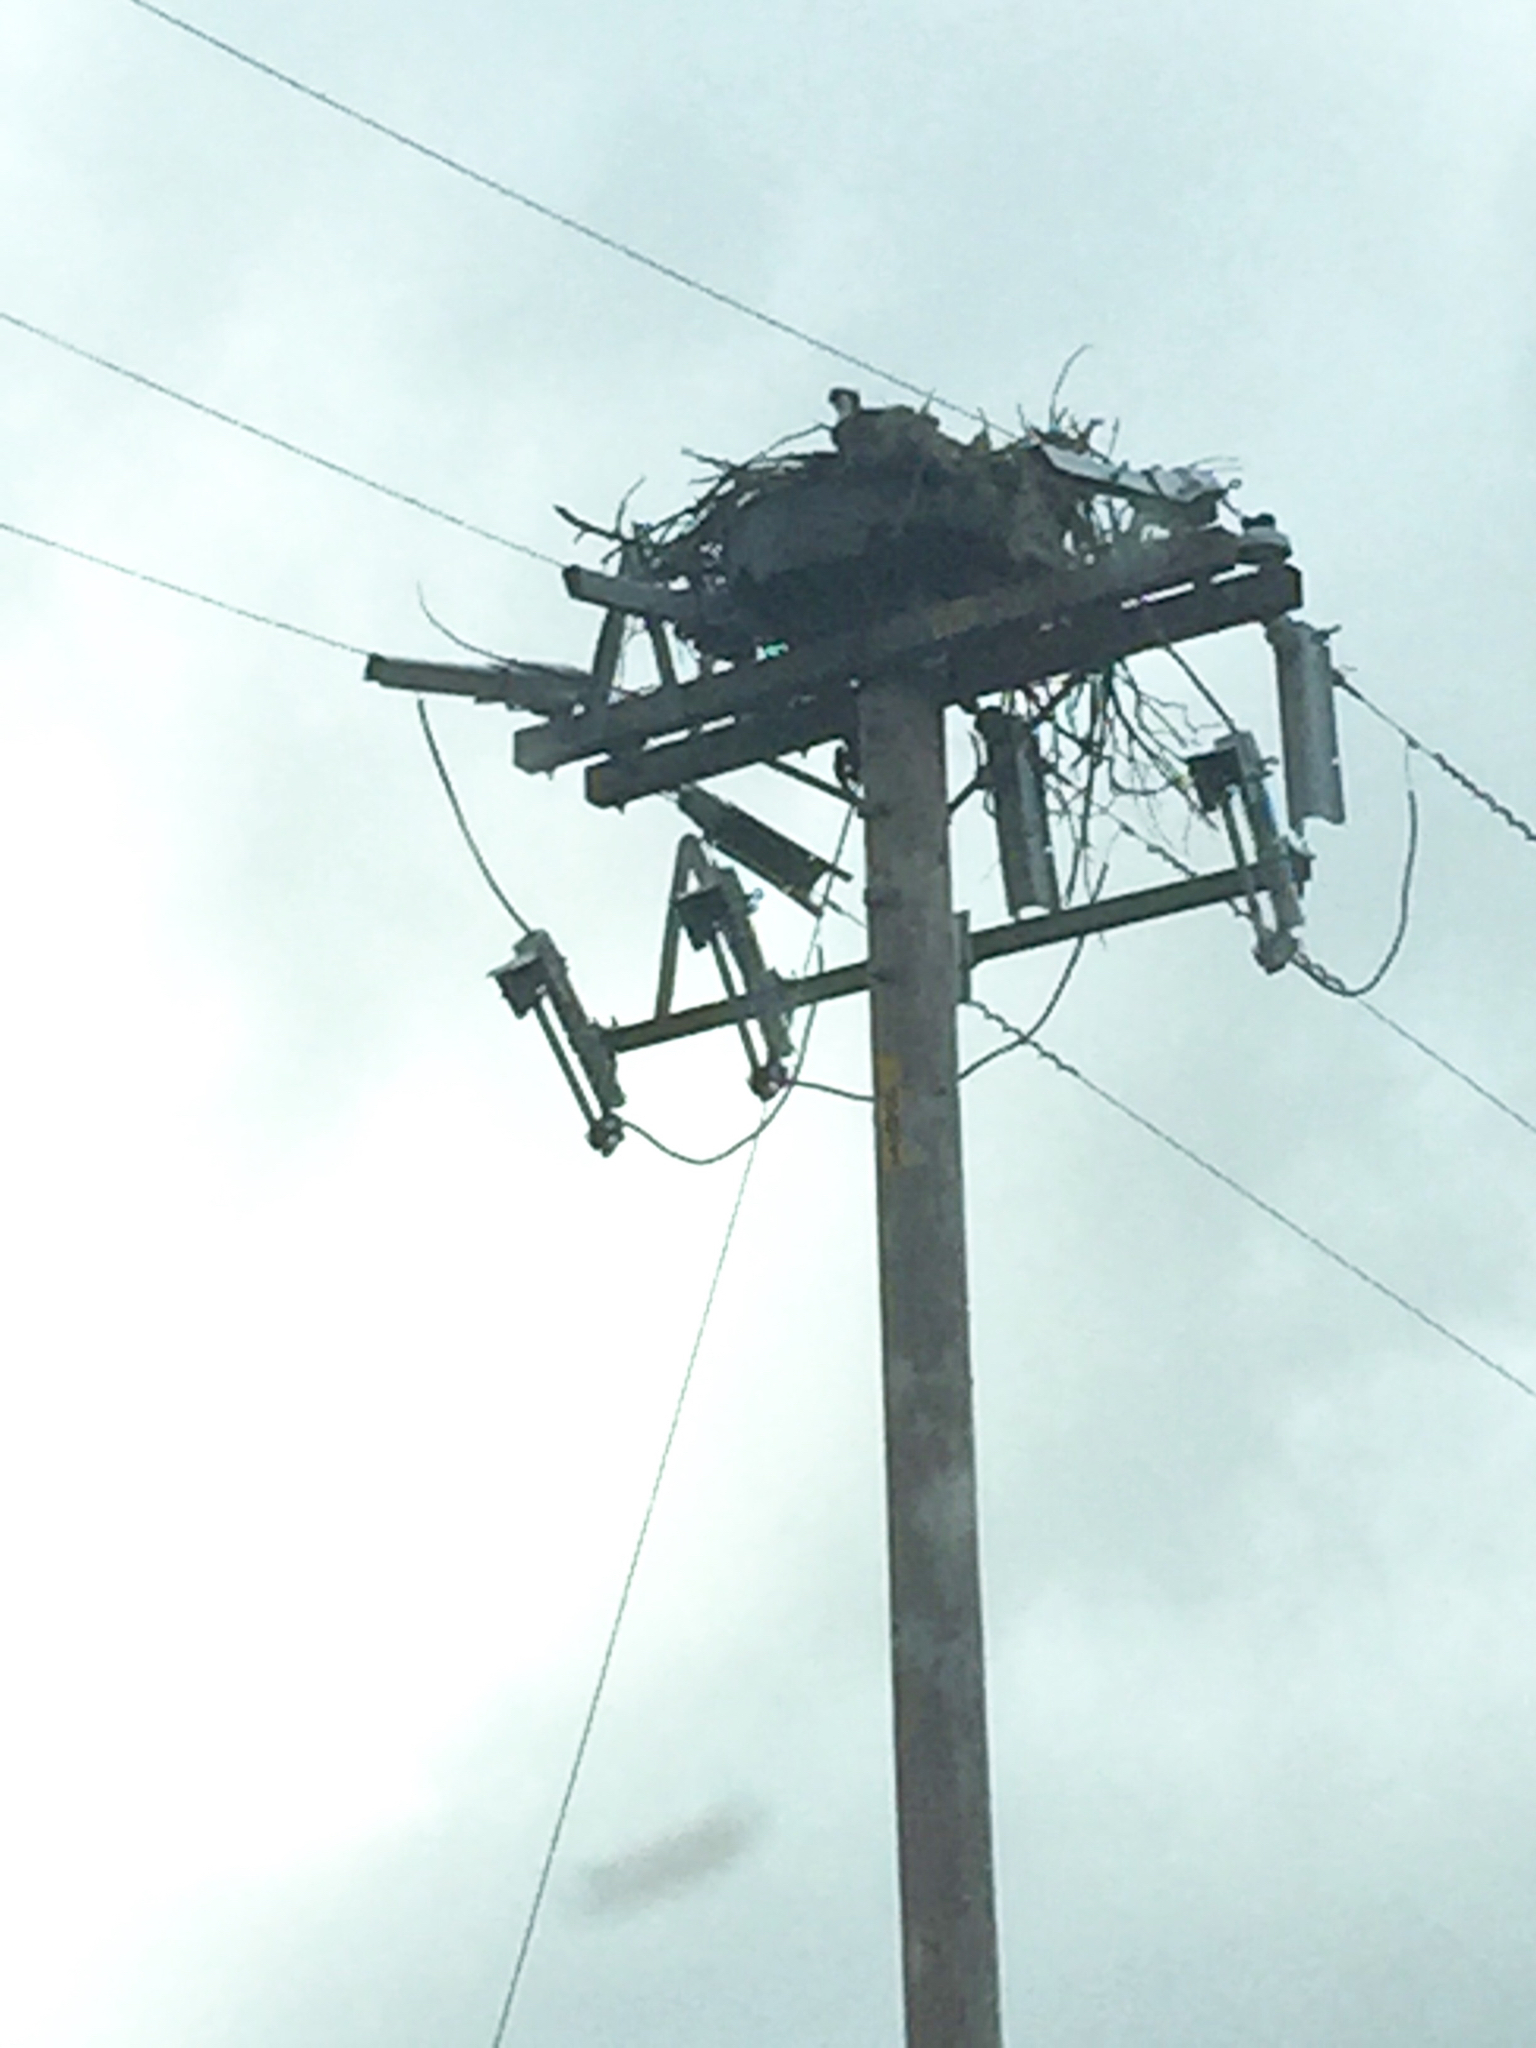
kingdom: Animalia
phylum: Chordata
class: Aves
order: Accipitriformes
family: Pandionidae
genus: Pandion
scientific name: Pandion haliaetus
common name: Osprey
